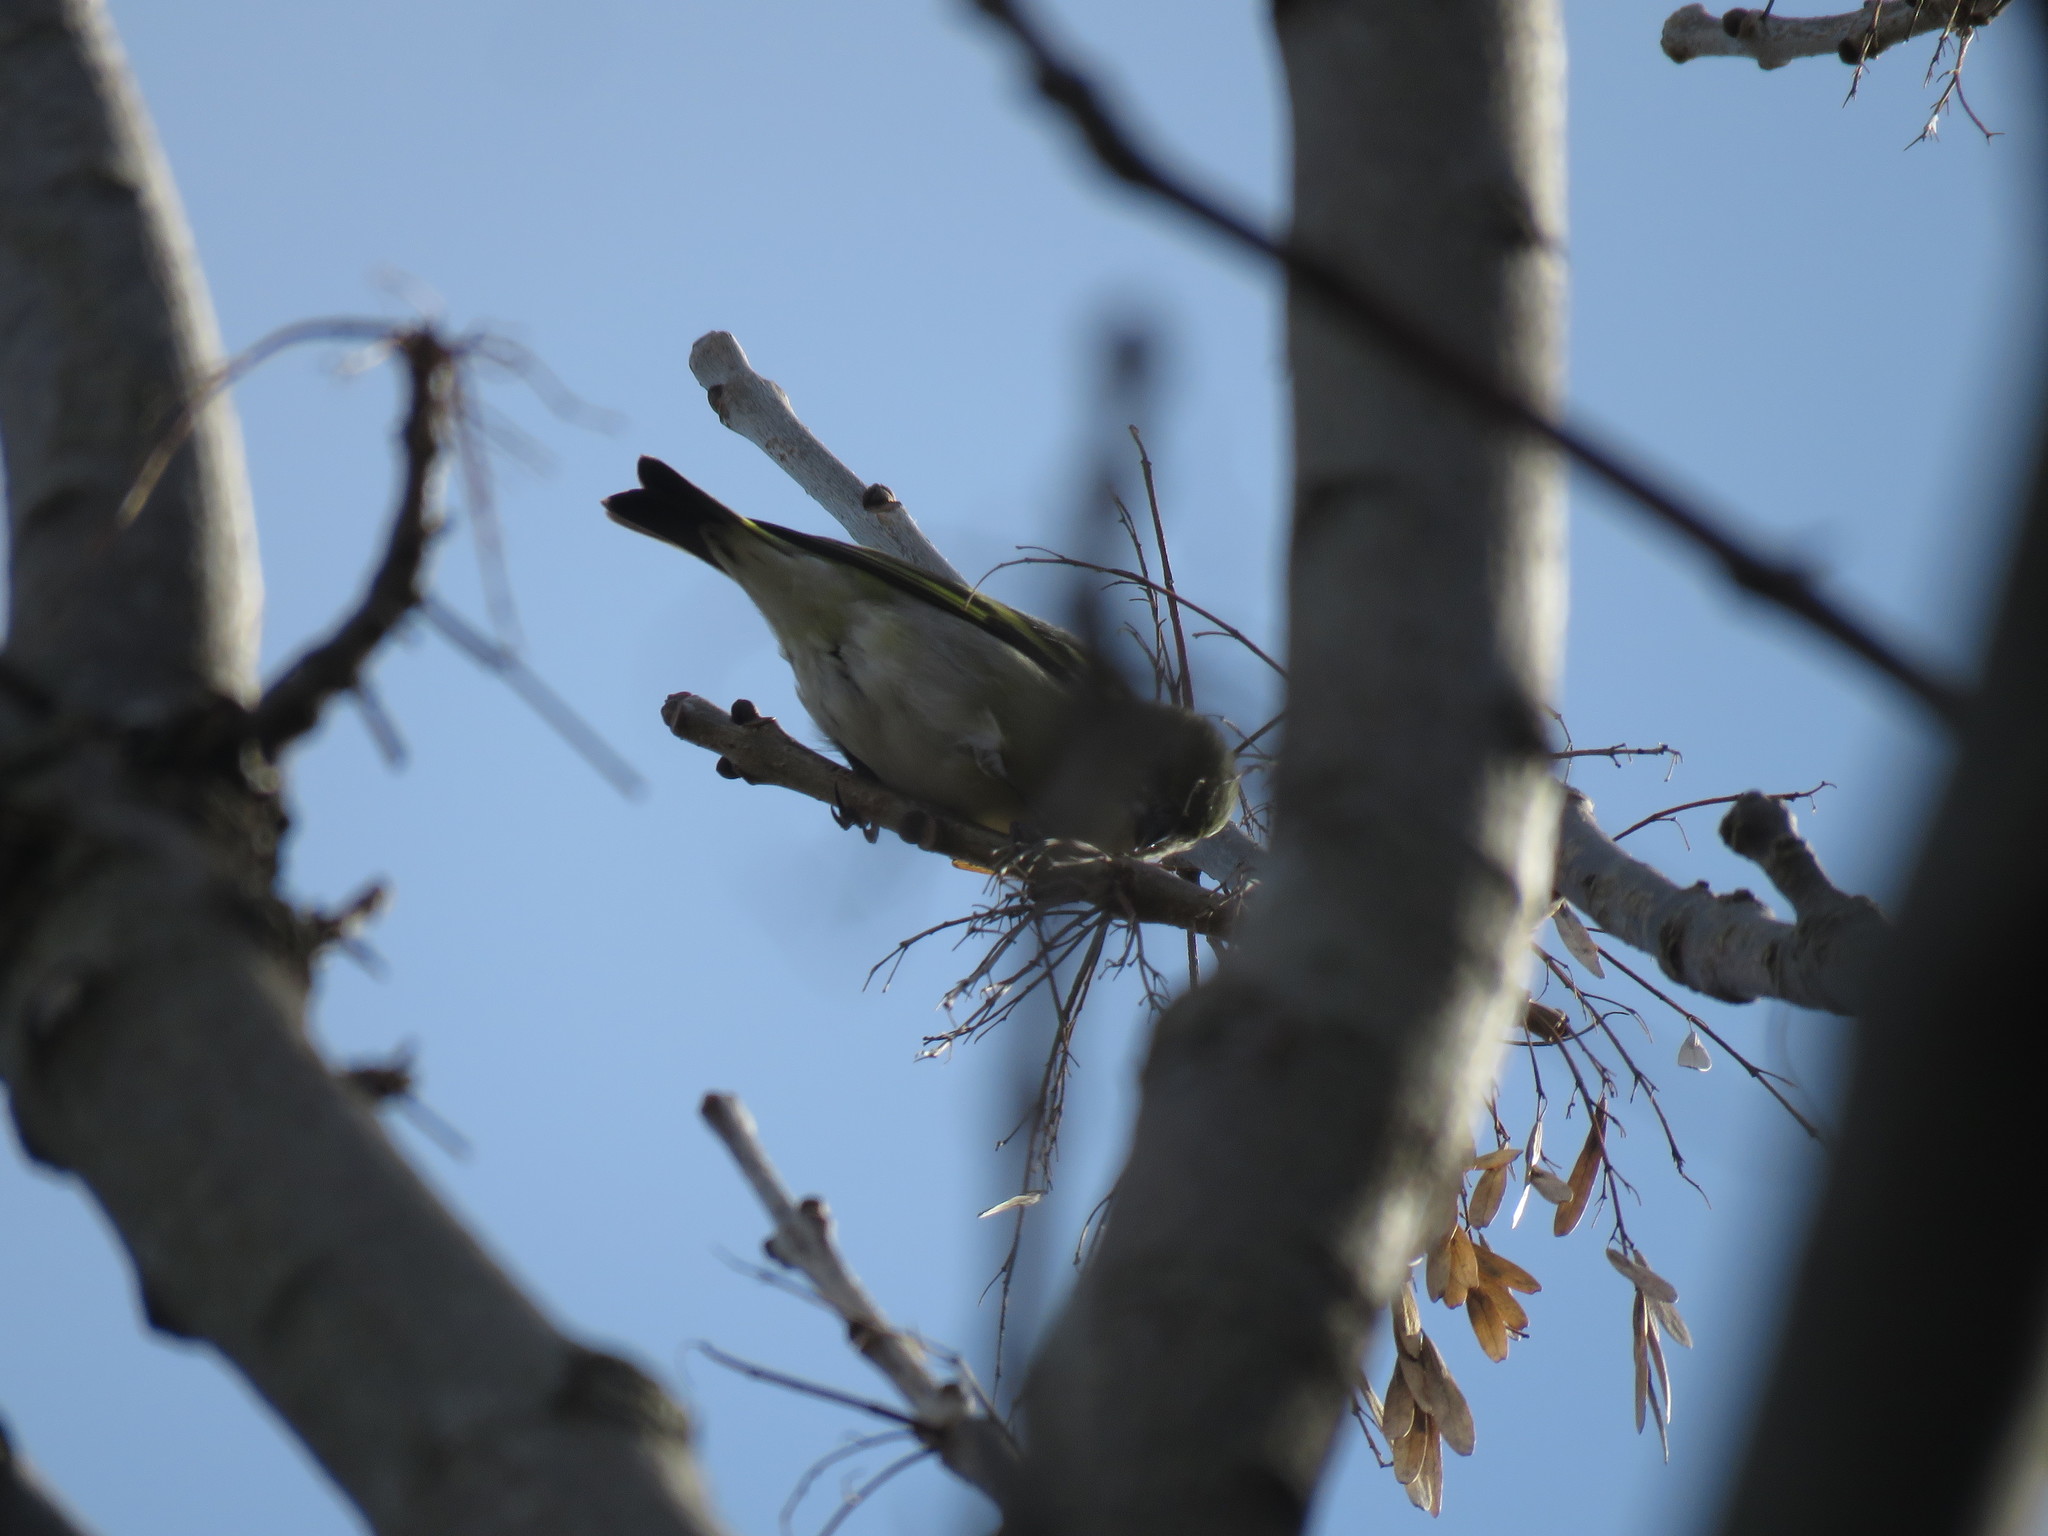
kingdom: Animalia
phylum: Chordata
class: Aves
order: Passeriformes
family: Fringillidae
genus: Spinus
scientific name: Spinus magellanicus
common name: Hooded siskin
